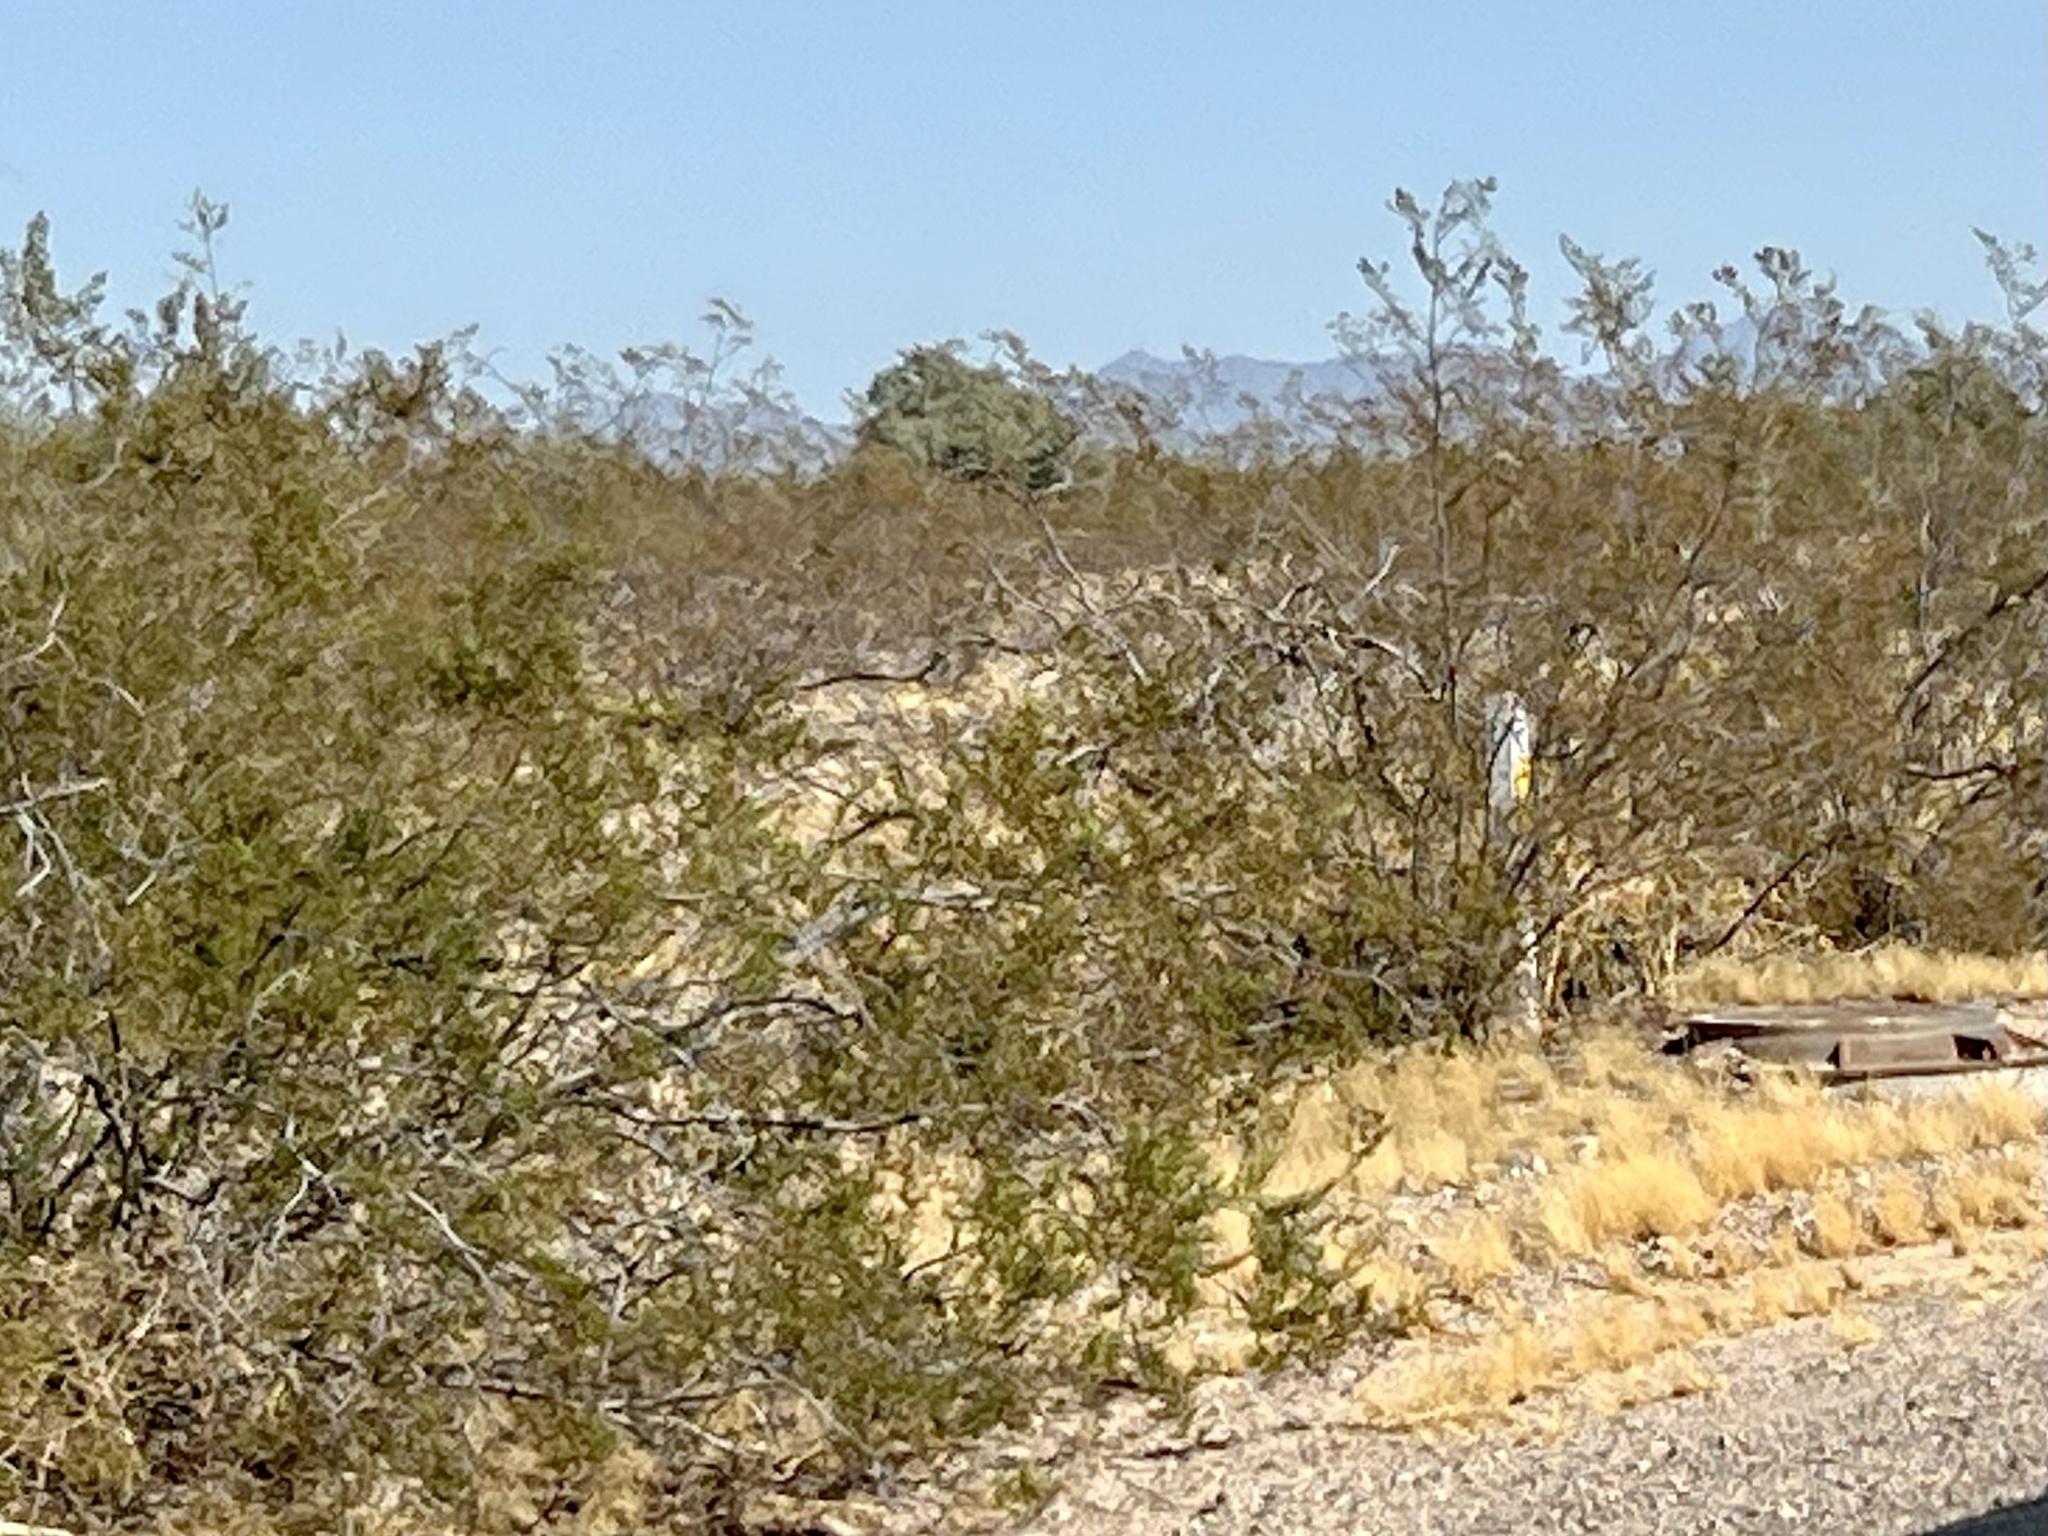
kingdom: Plantae
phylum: Tracheophyta
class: Magnoliopsida
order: Zygophyllales
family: Zygophyllaceae
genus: Larrea
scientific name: Larrea tridentata
